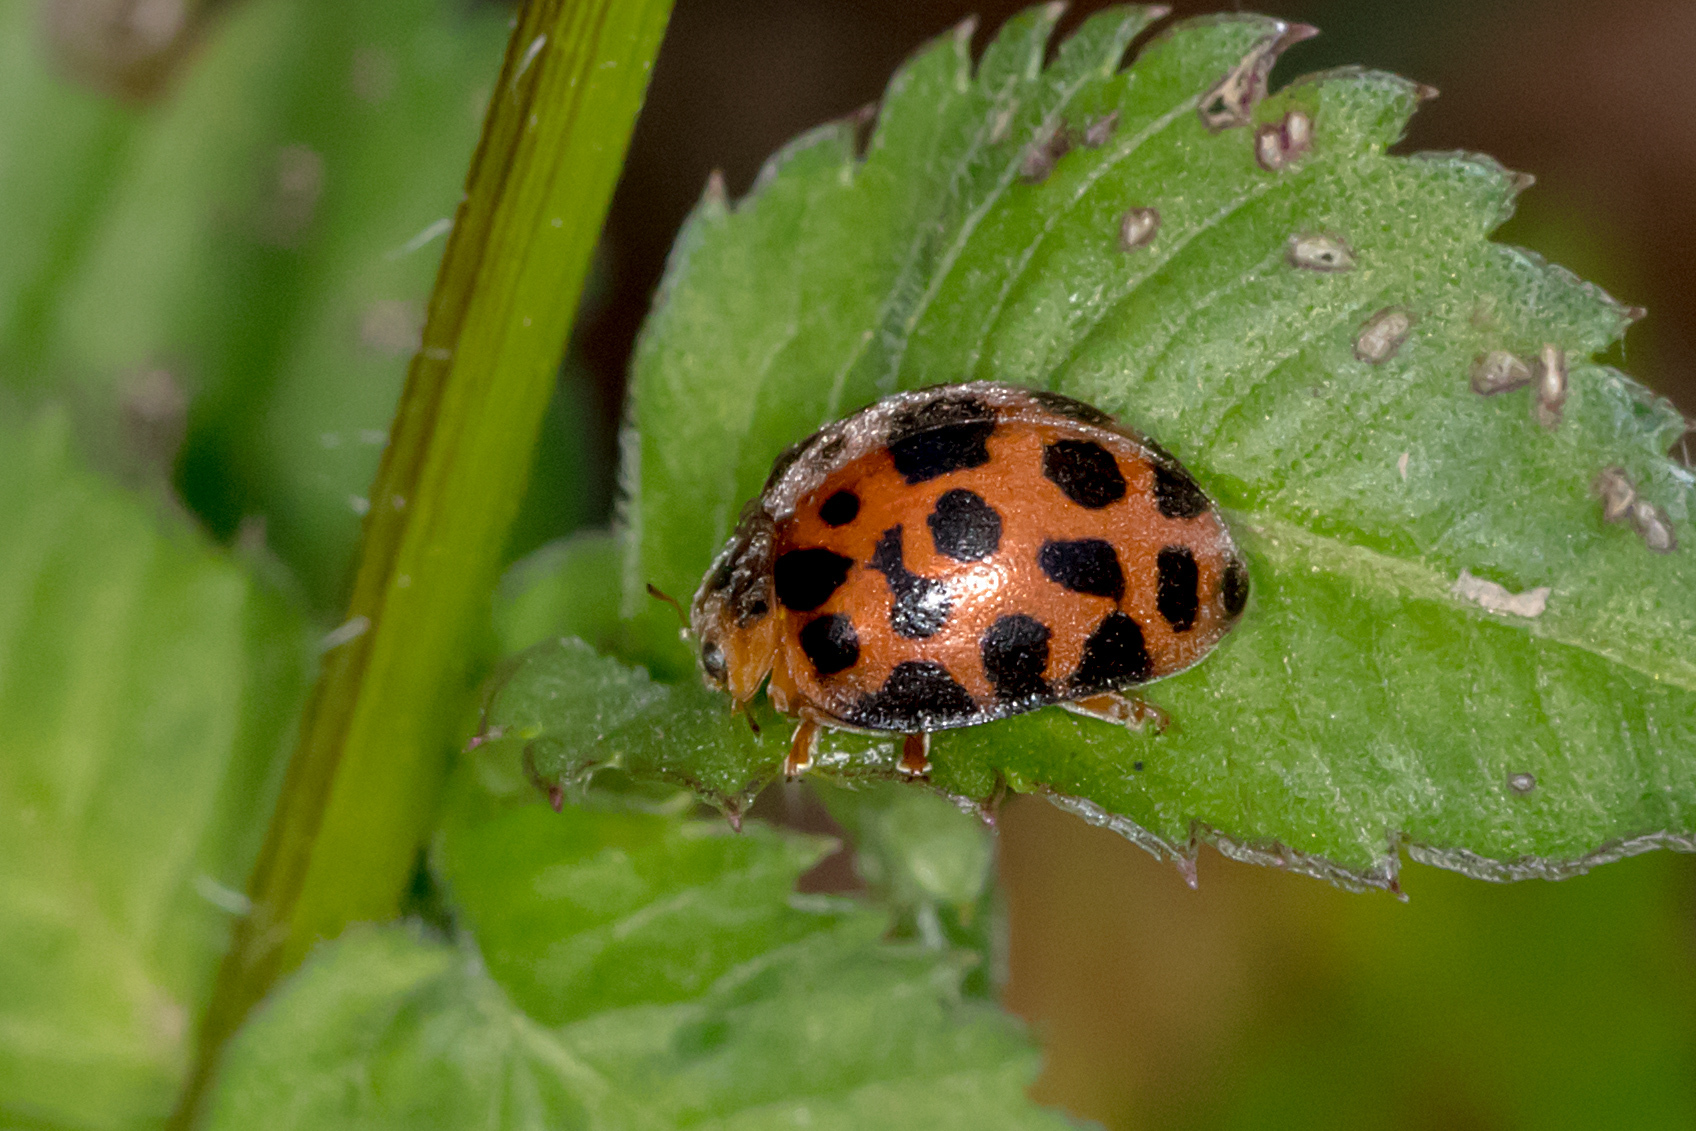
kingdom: Animalia
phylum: Arthropoda
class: Insecta
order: Coleoptera
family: Coccinellidae
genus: Henosepilachna
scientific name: Henosepilachna vigintisexpunctata
